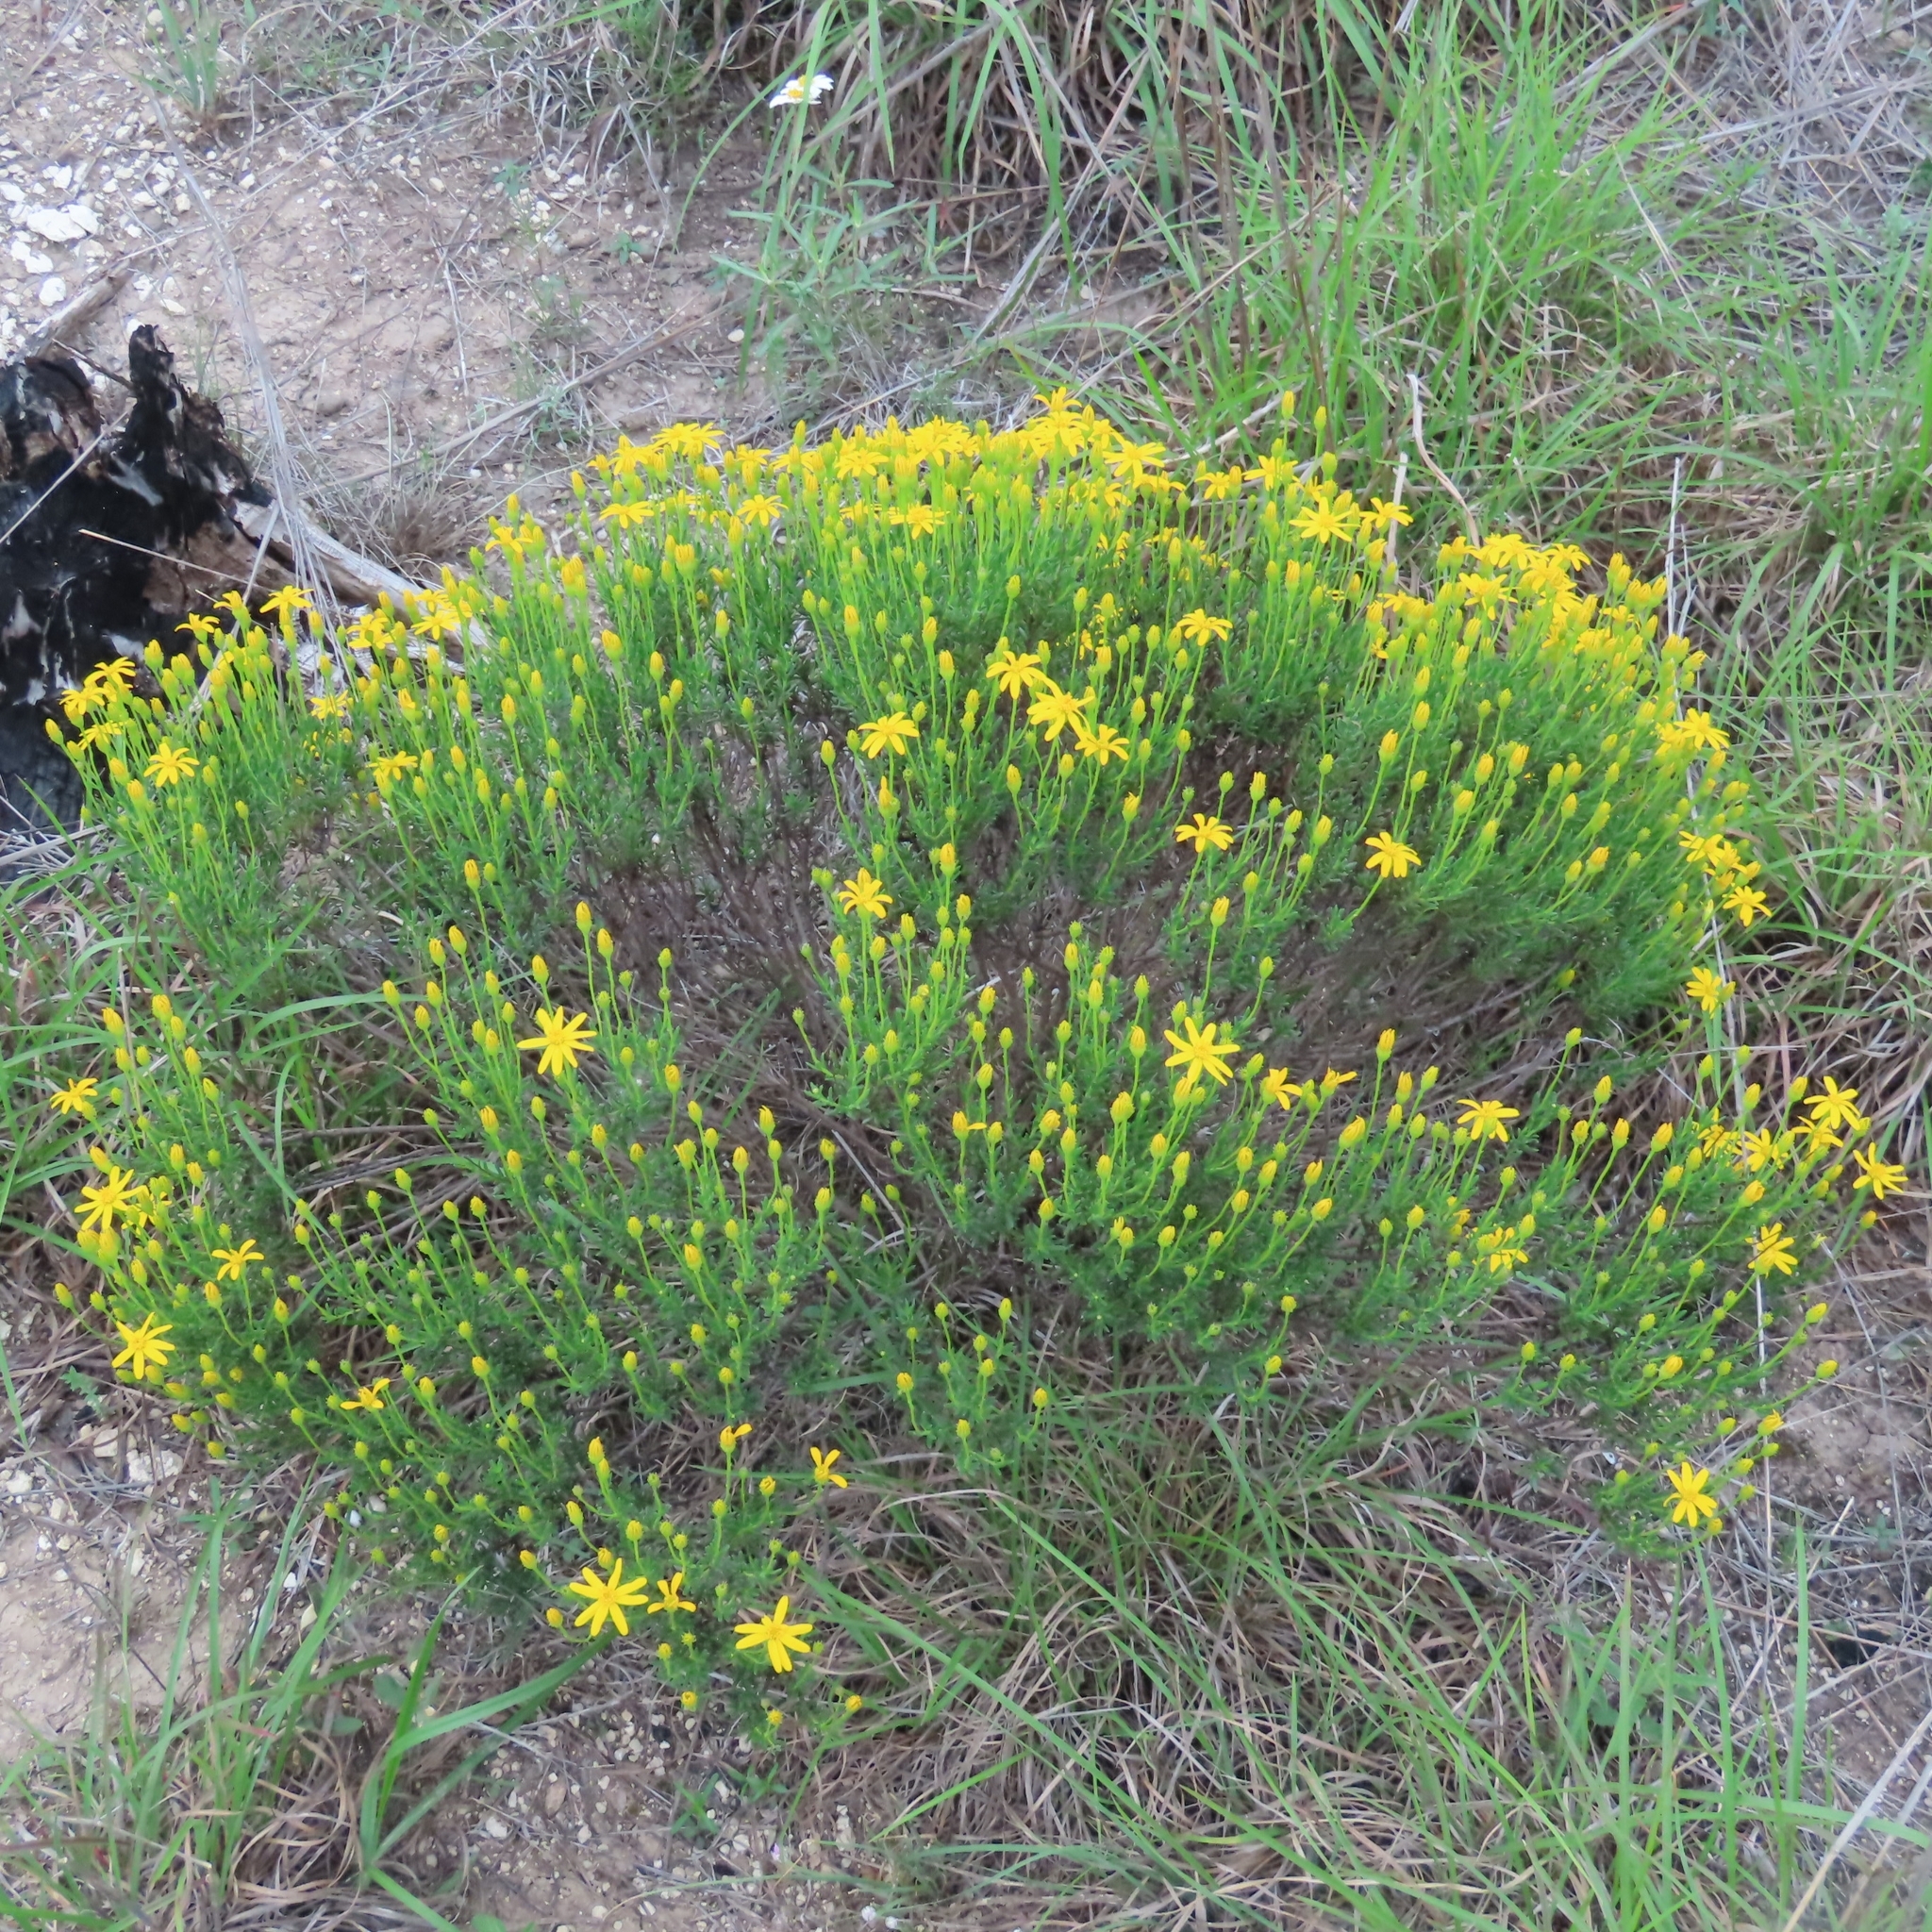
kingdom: Plantae
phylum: Tracheophyta
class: Magnoliopsida
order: Asterales
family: Asteraceae
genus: Chrysactinia
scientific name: Chrysactinia mexicana
